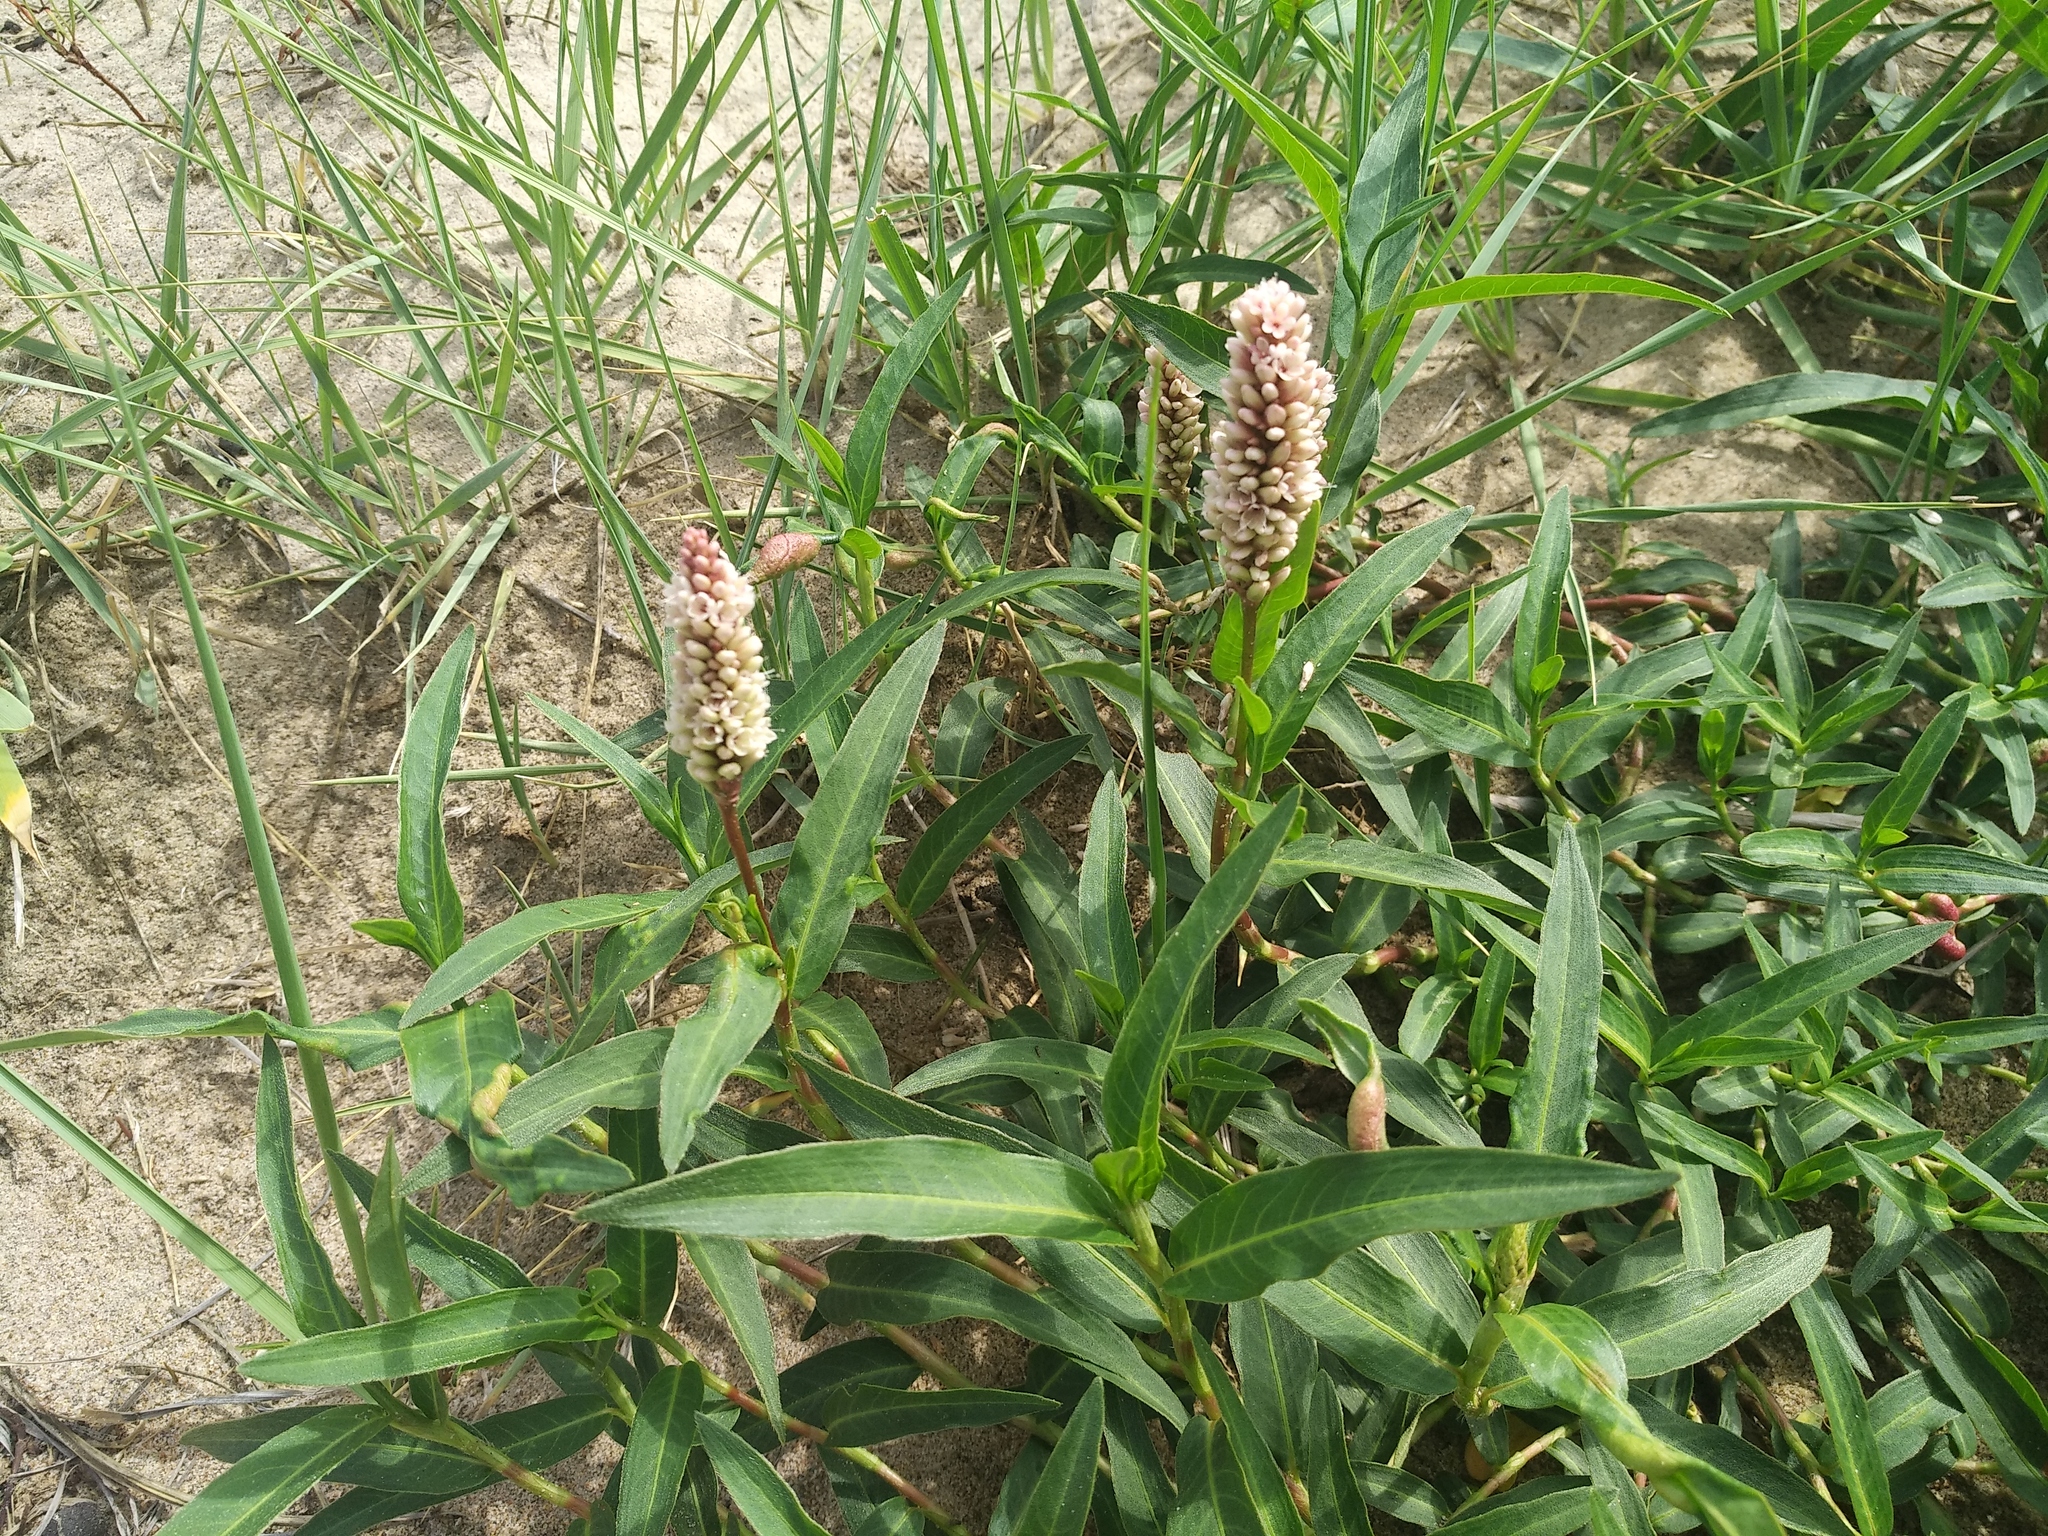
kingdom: Plantae
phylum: Tracheophyta
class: Magnoliopsida
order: Caryophyllales
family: Polygonaceae
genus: Bistorta
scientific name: Bistorta elliptica
